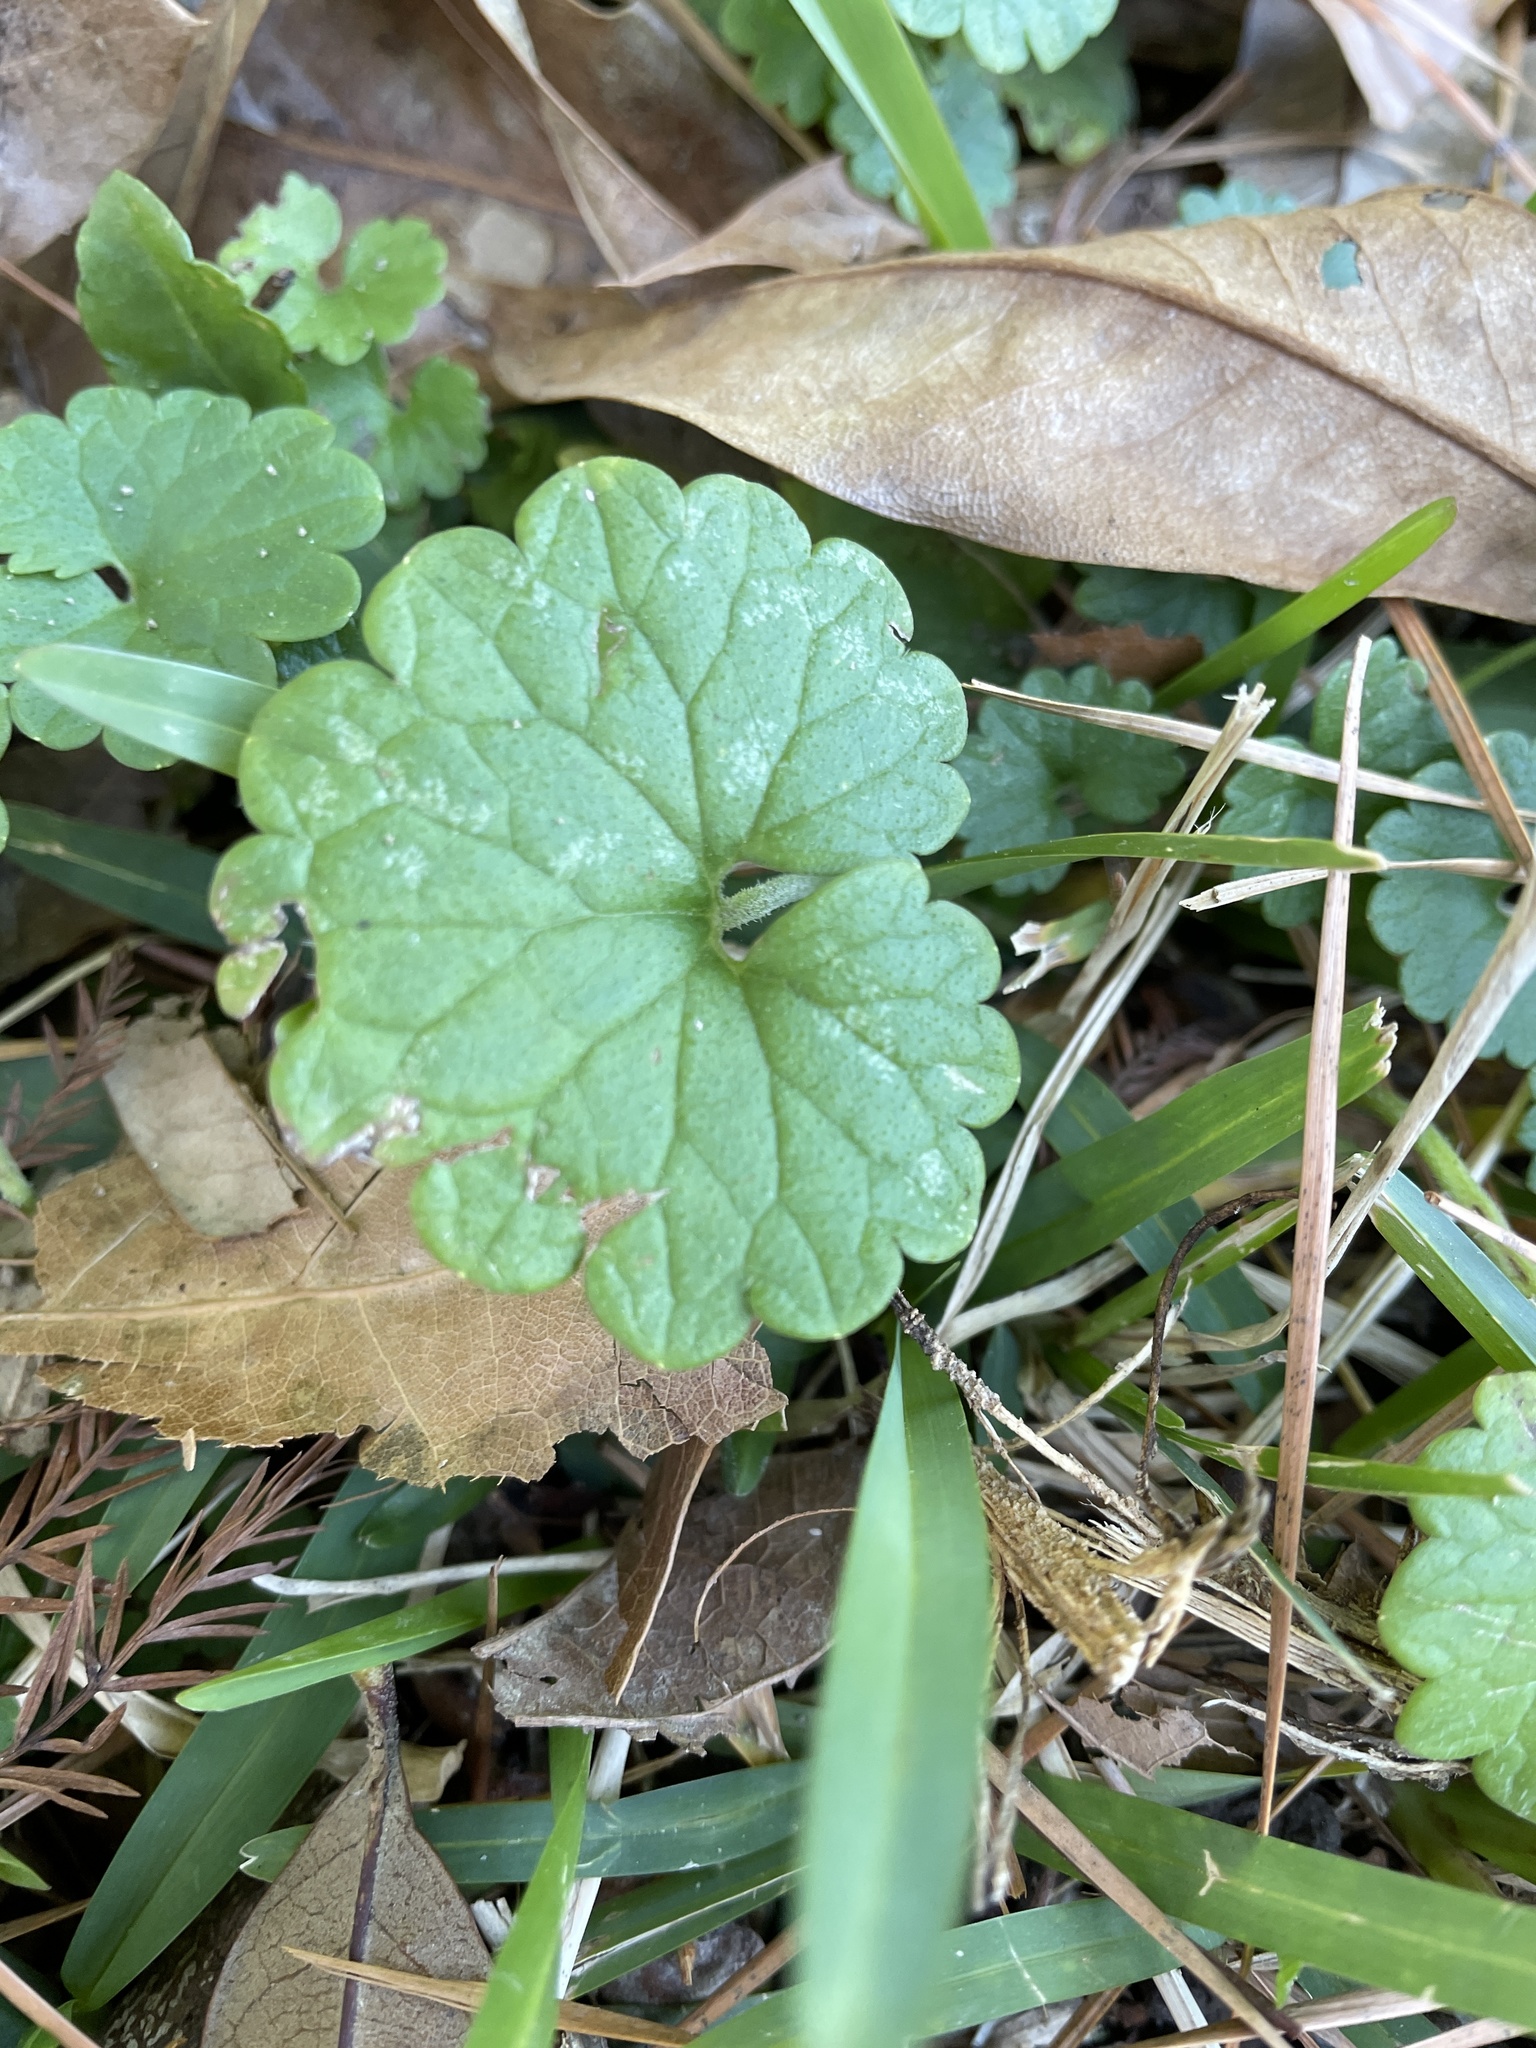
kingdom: Plantae
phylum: Tracheophyta
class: Magnoliopsida
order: Lamiales
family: Lamiaceae
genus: Glechoma
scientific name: Glechoma hederacea
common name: Ground ivy
